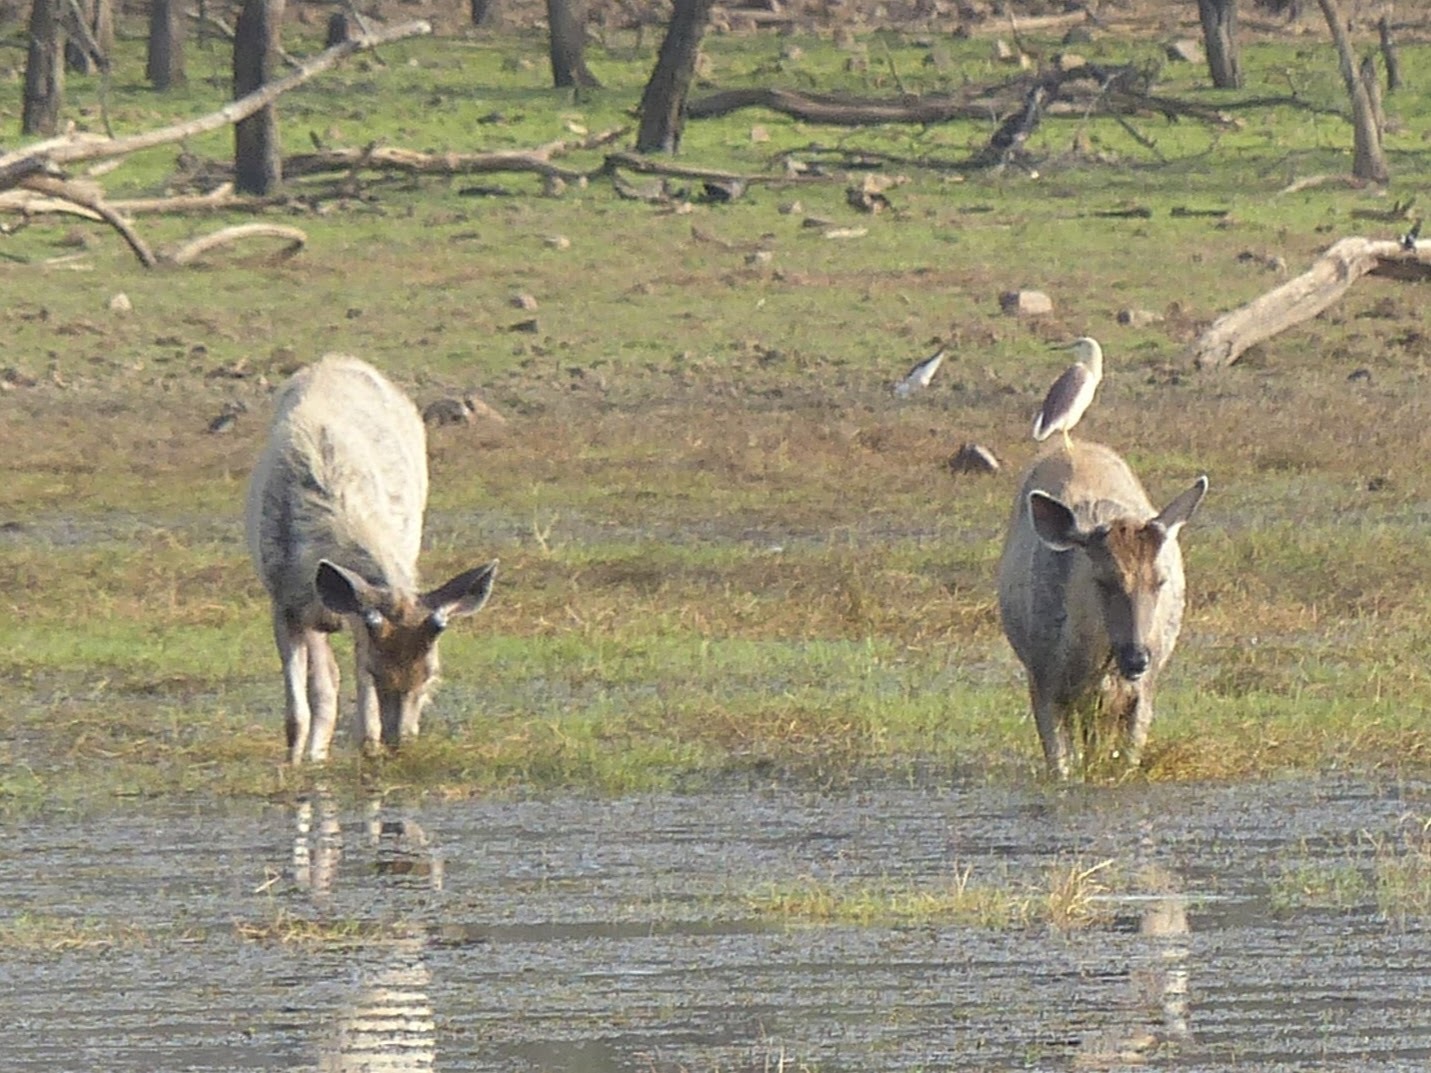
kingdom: Animalia
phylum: Chordata
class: Mammalia
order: Artiodactyla
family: Cervidae
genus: Rusa
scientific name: Rusa unicolor
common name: Sambar
